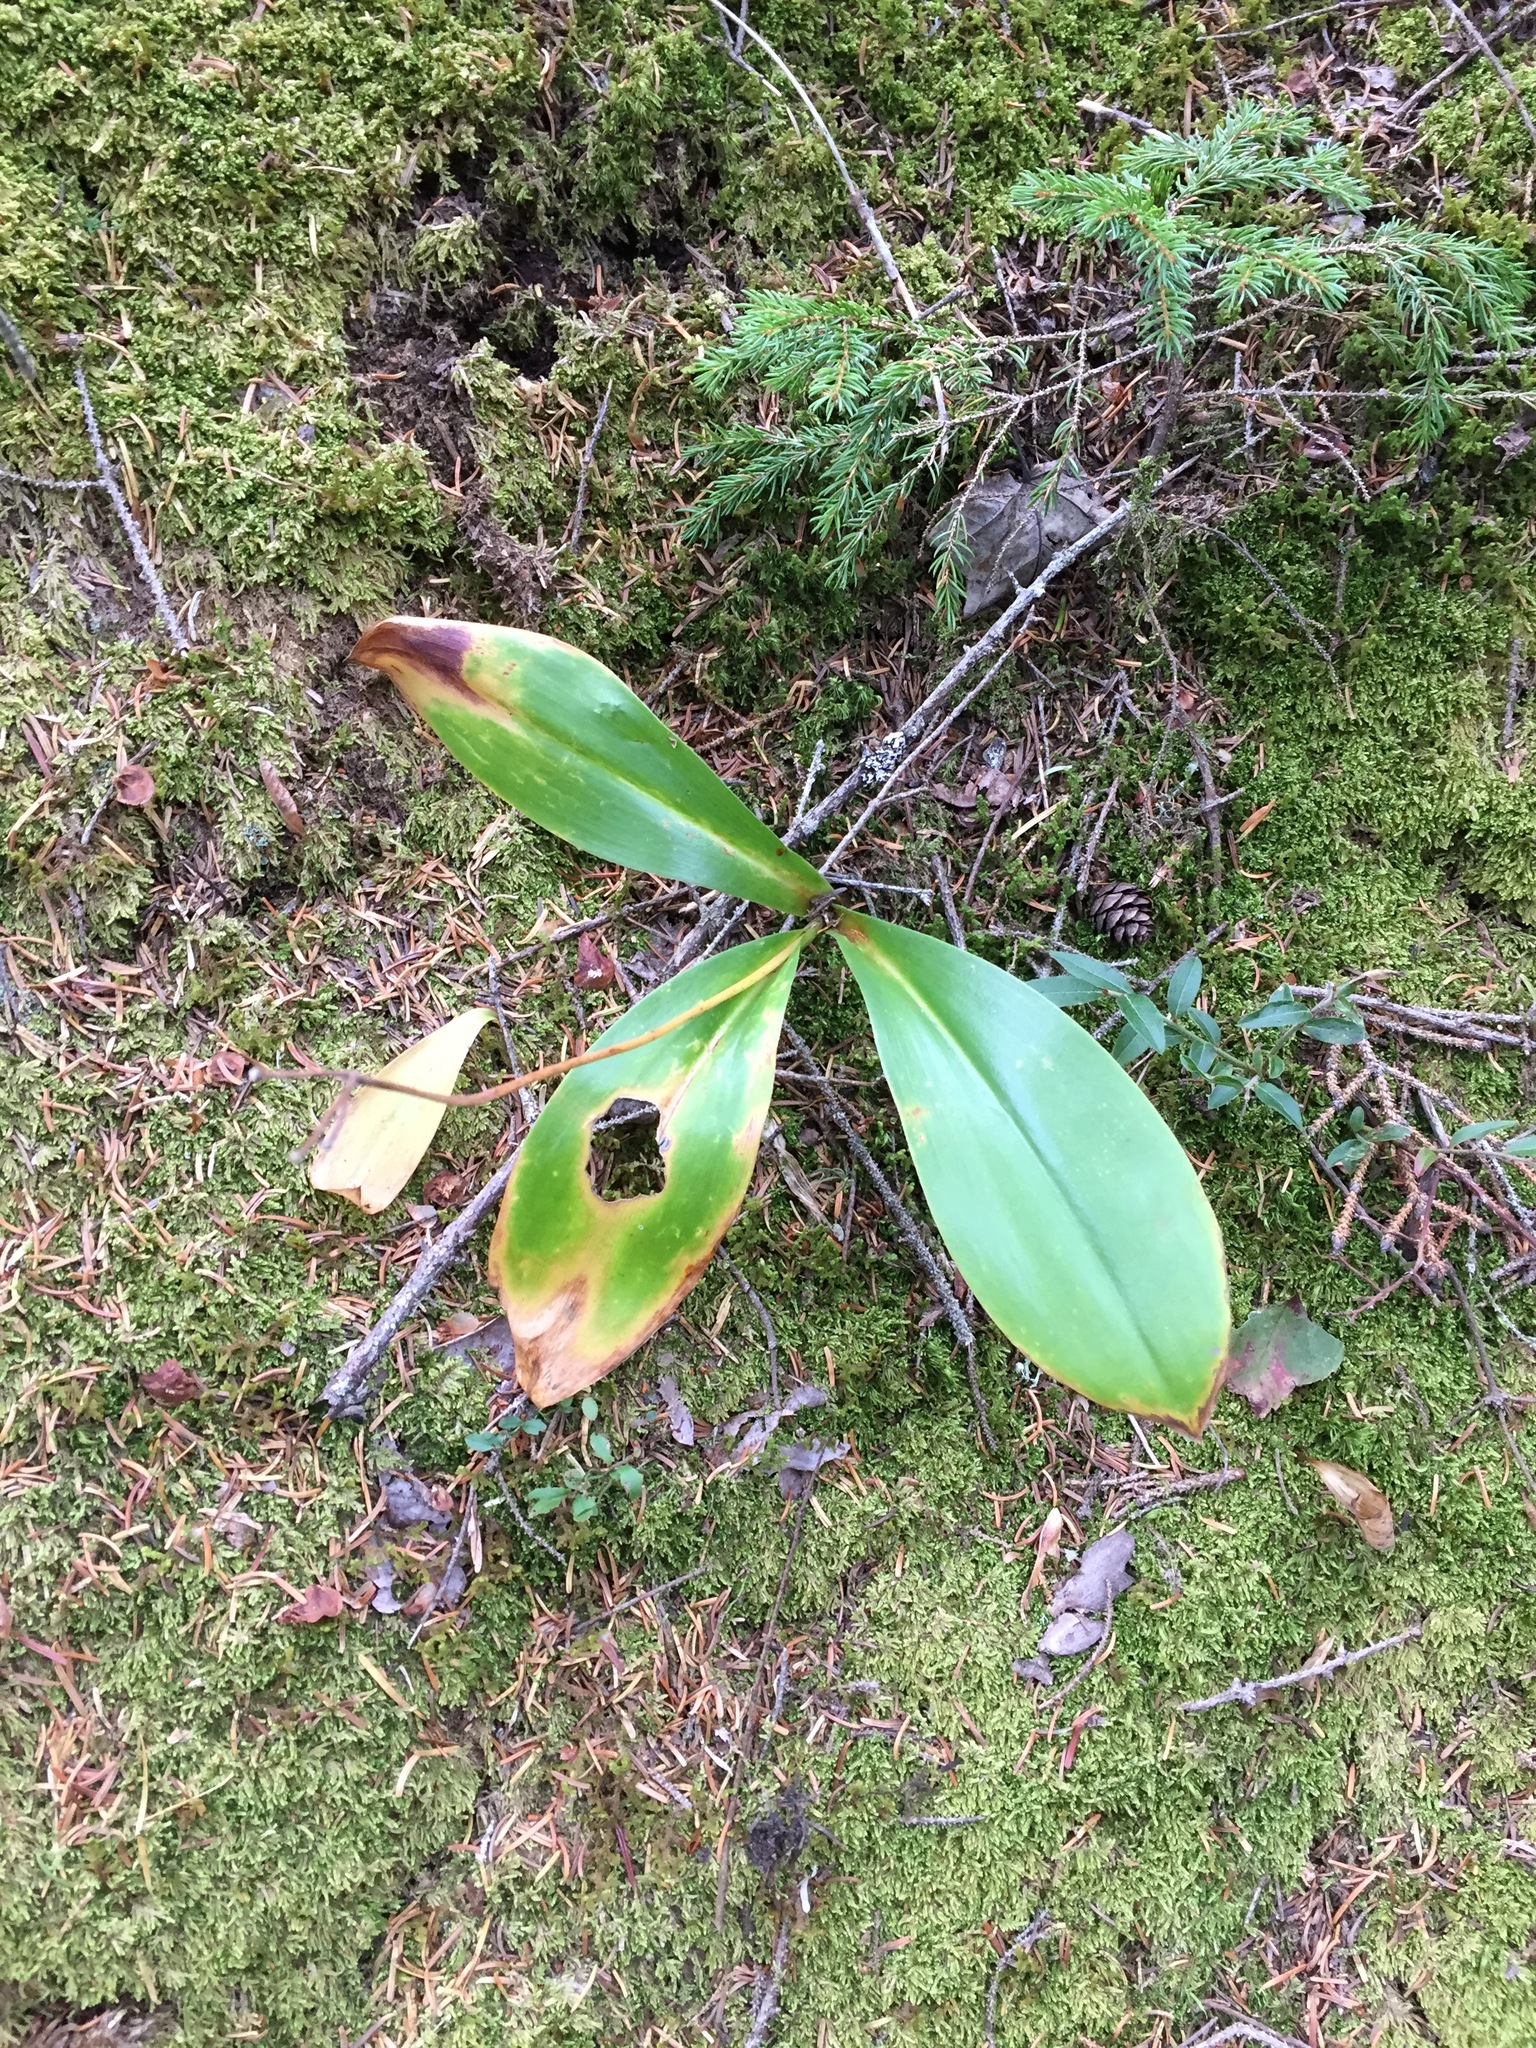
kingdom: Plantae
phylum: Tracheophyta
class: Liliopsida
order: Liliales
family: Liliaceae
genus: Clintonia
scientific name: Clintonia borealis
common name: Yellow clintonia
